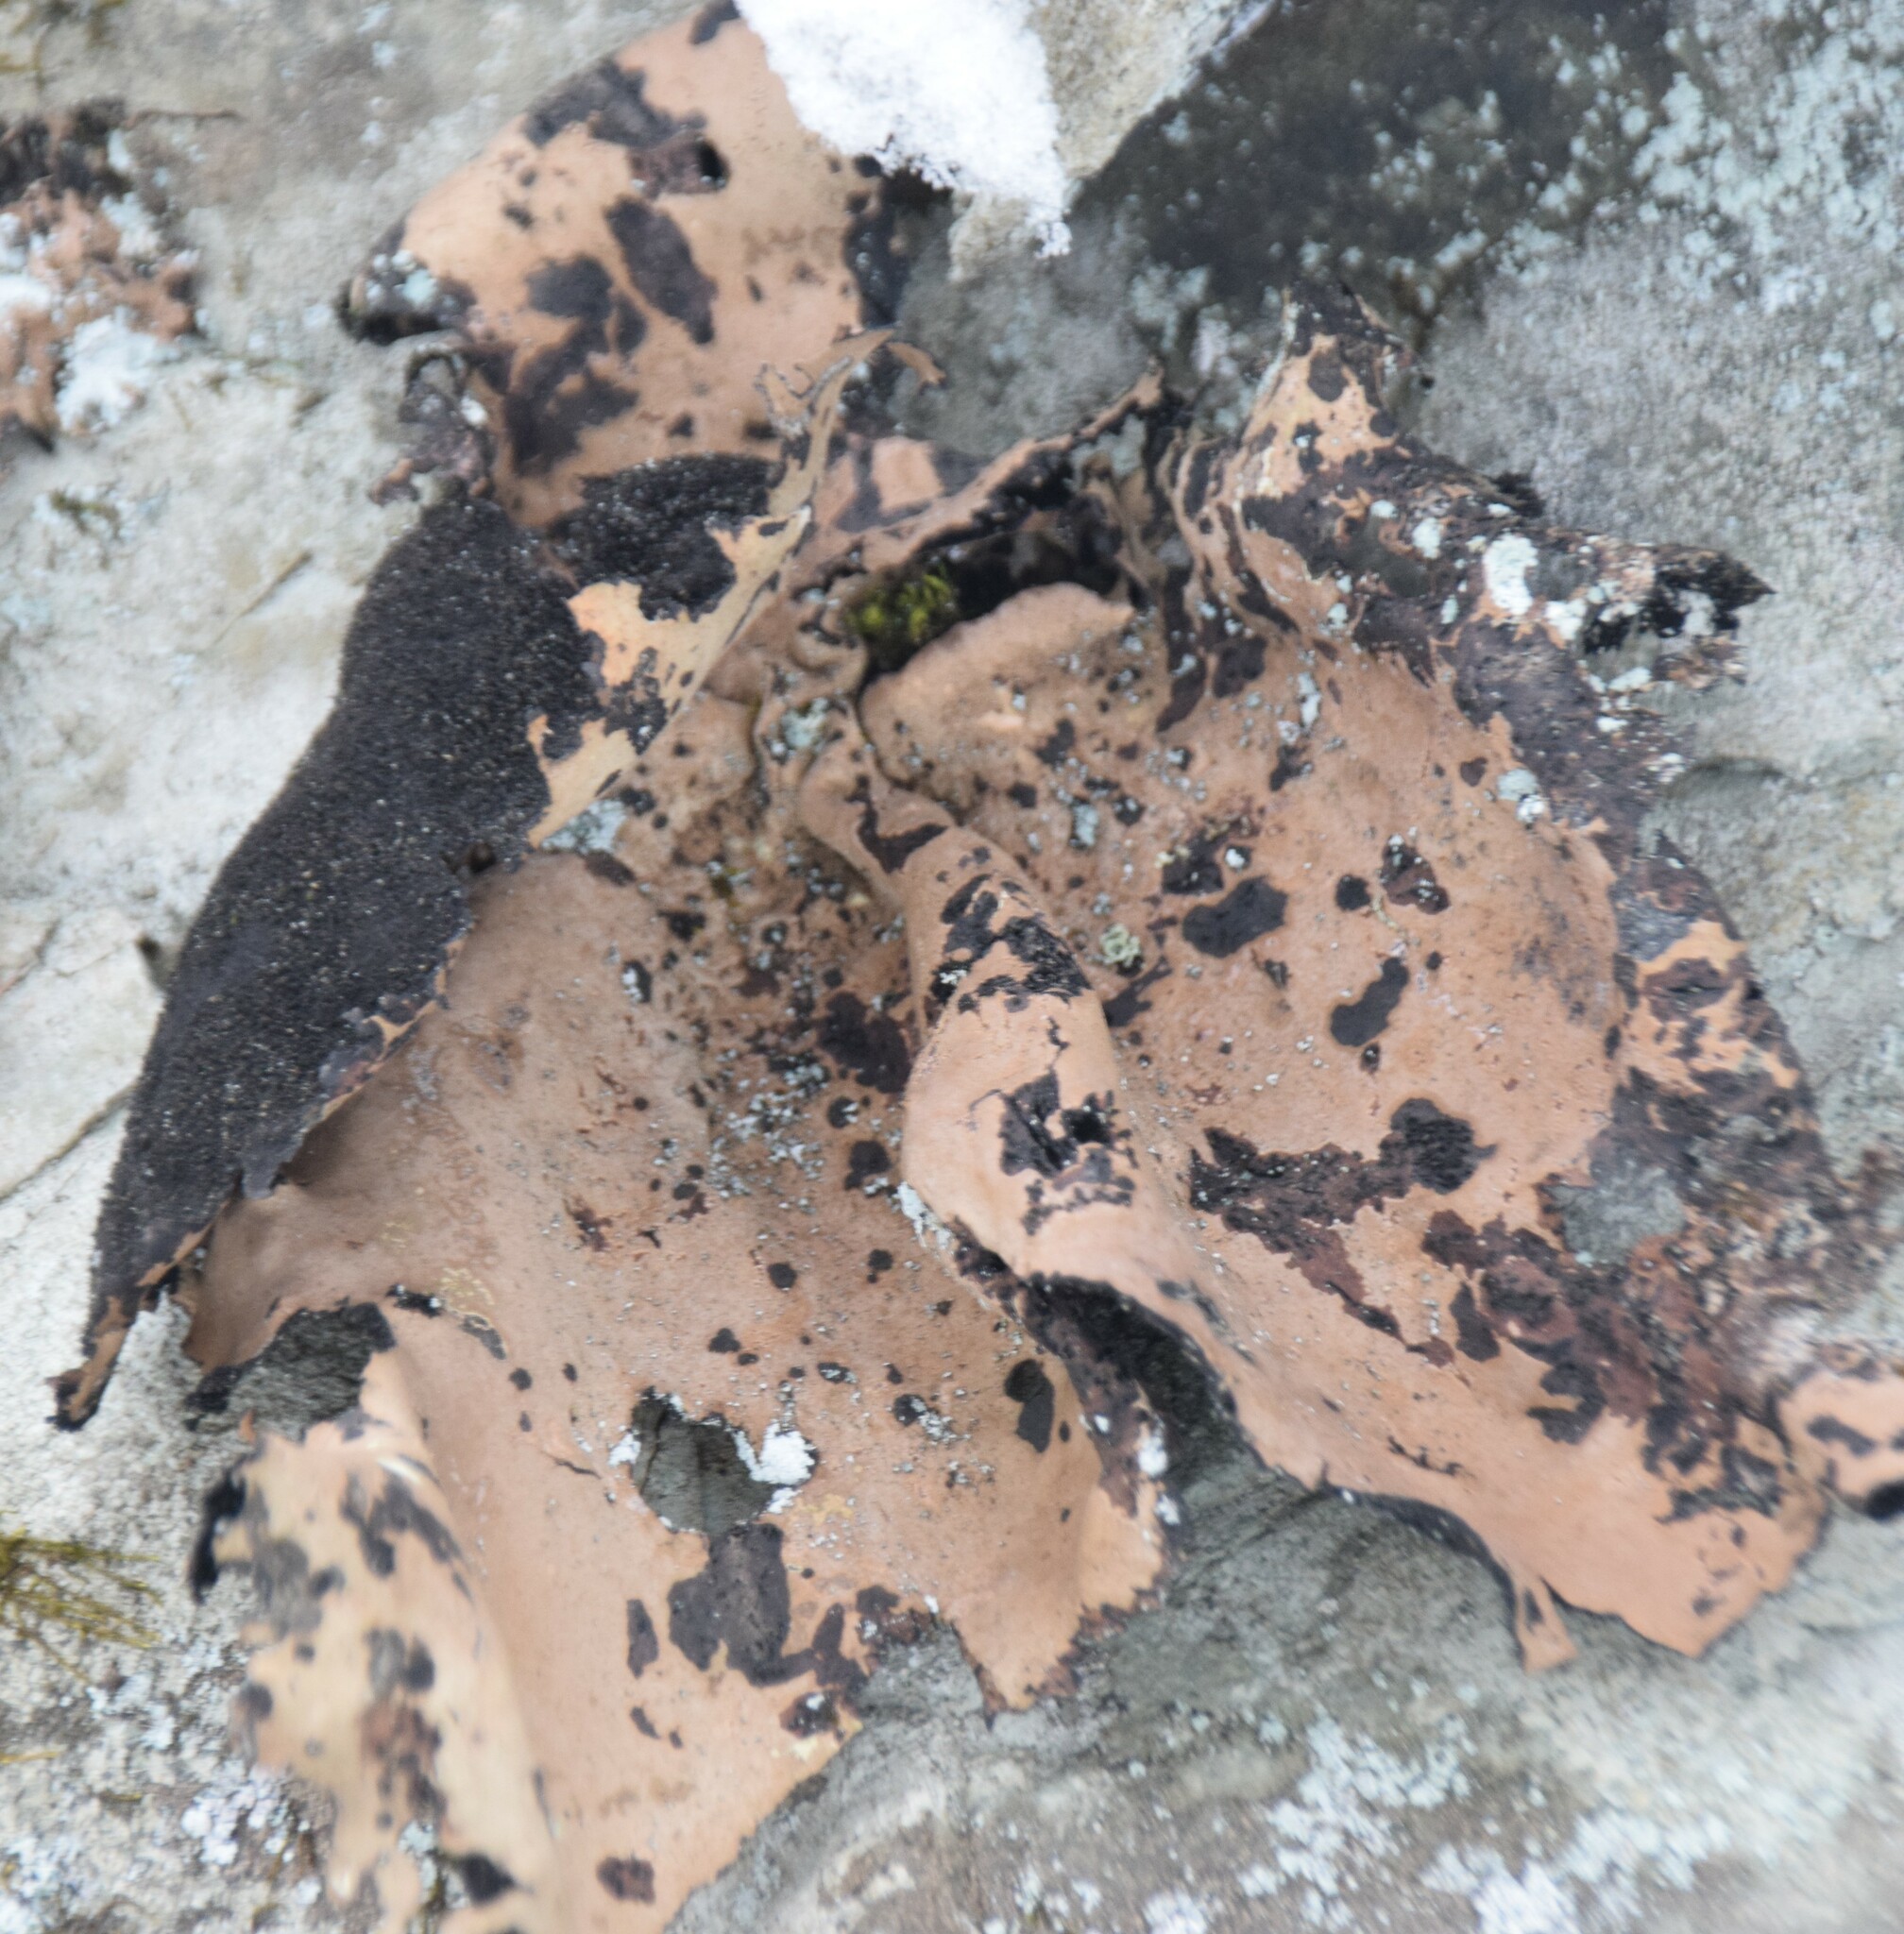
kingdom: Fungi
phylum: Ascomycota
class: Lecanoromycetes
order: Umbilicariales
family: Umbilicariaceae
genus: Umbilicaria
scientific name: Umbilicaria mammulata
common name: Smooth rock tripe
